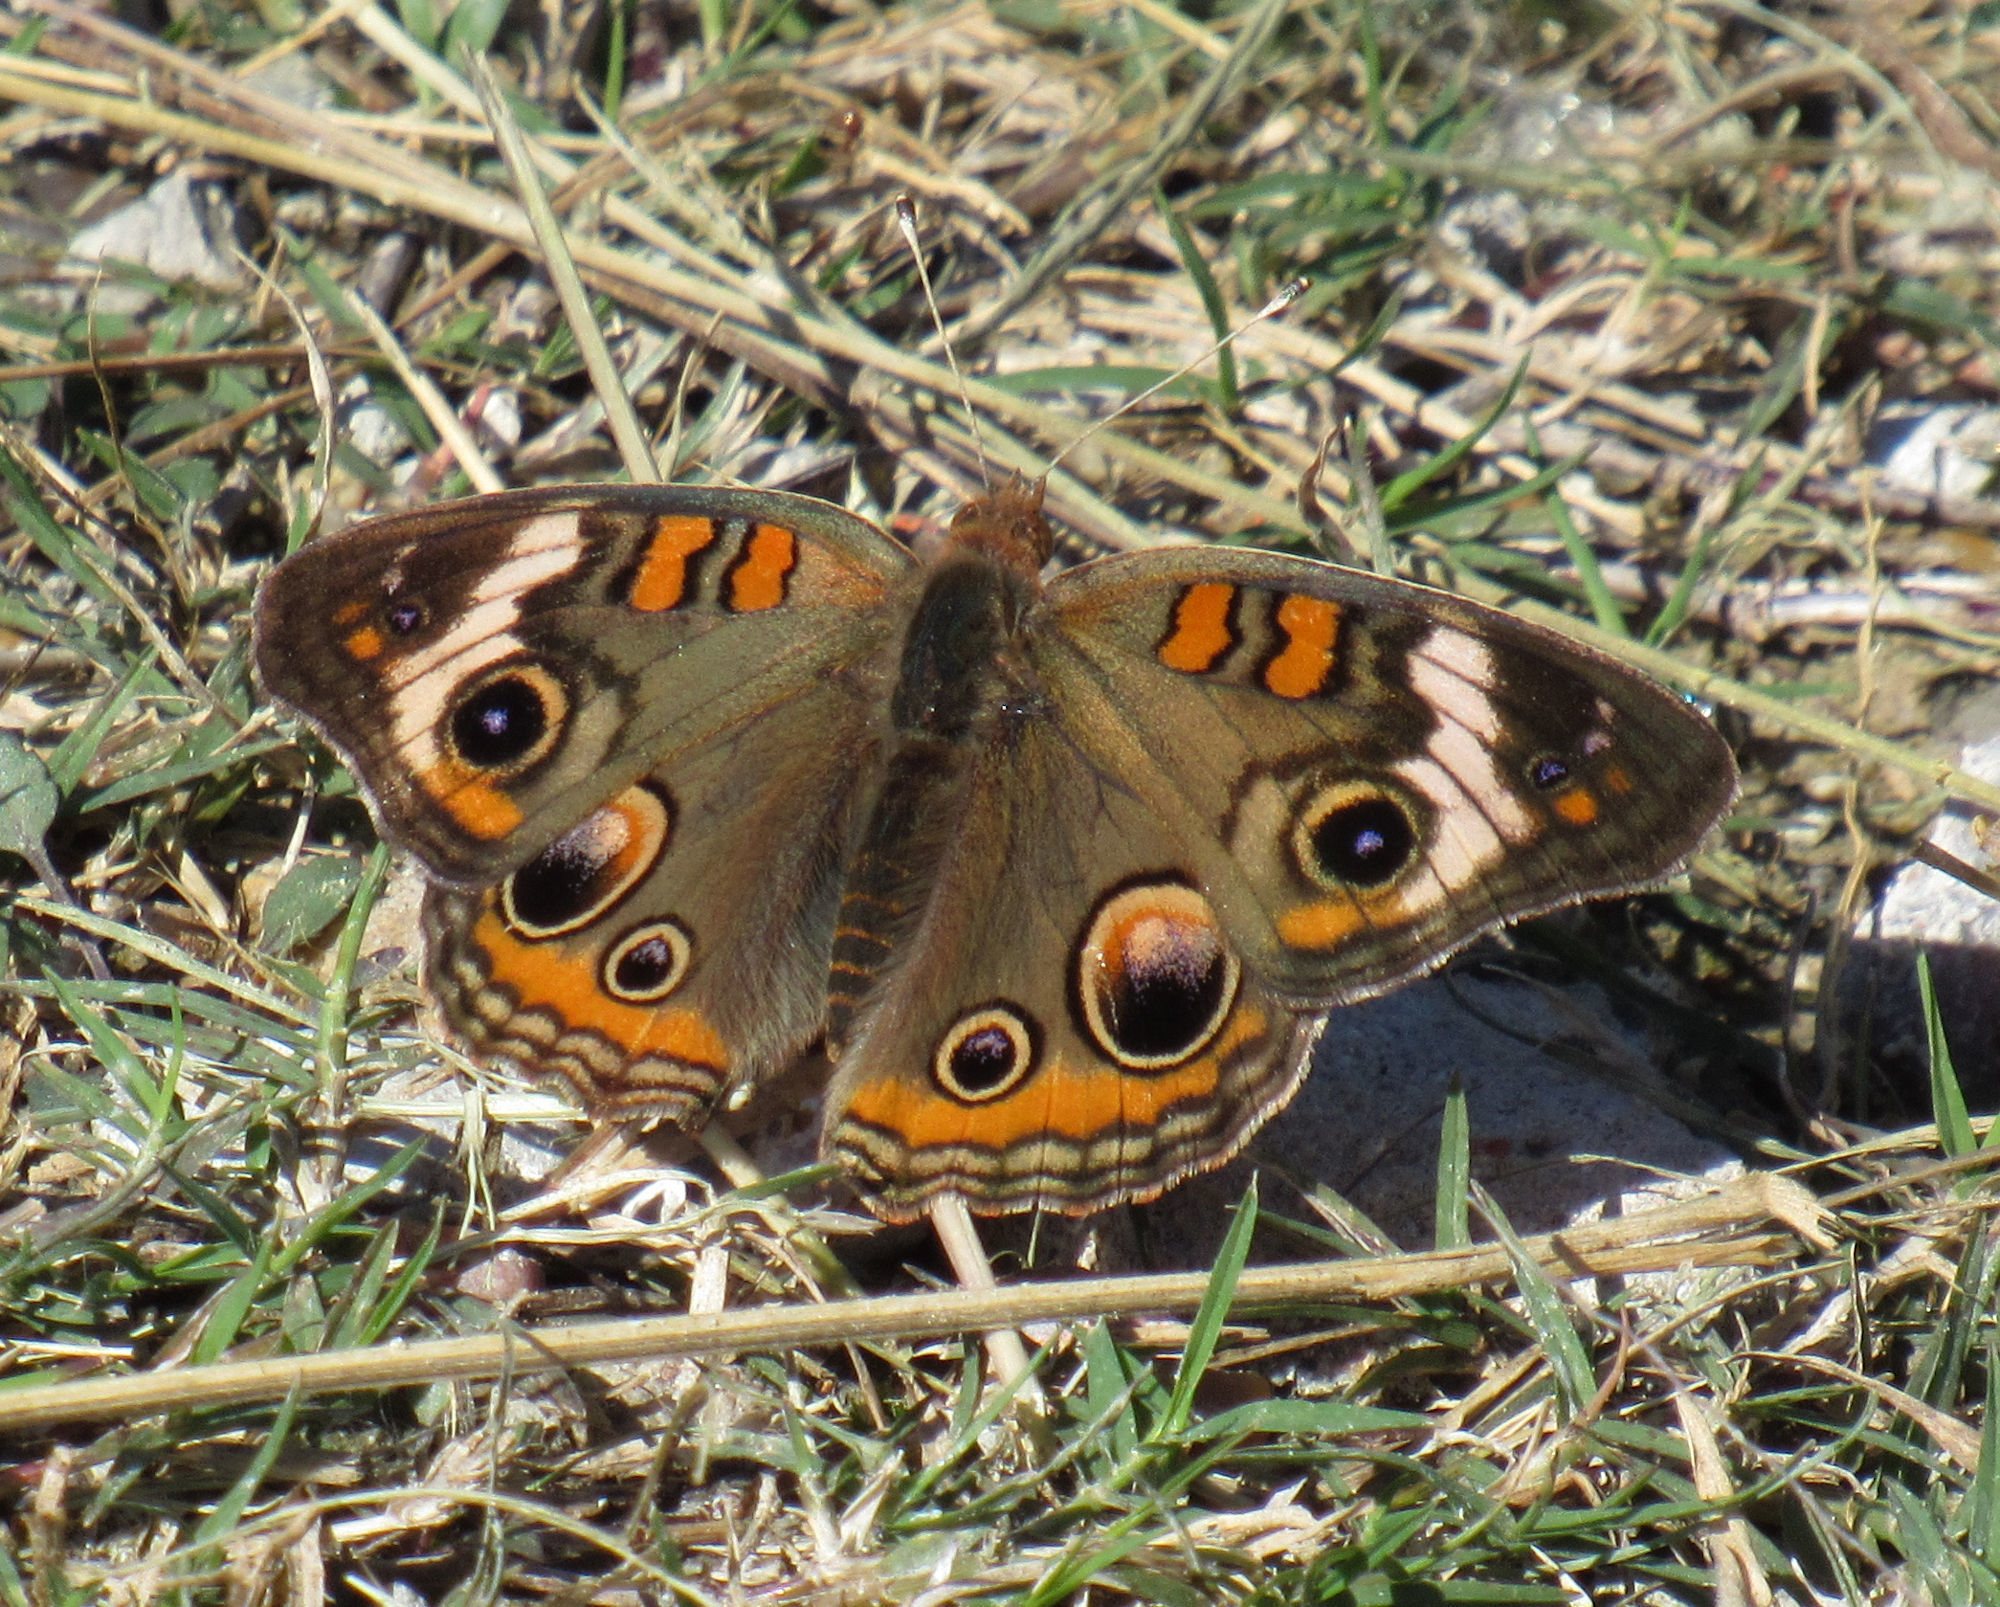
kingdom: Animalia
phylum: Arthropoda
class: Insecta
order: Lepidoptera
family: Nymphalidae
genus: Junonia
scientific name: Junonia coenia
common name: Common buckeye
